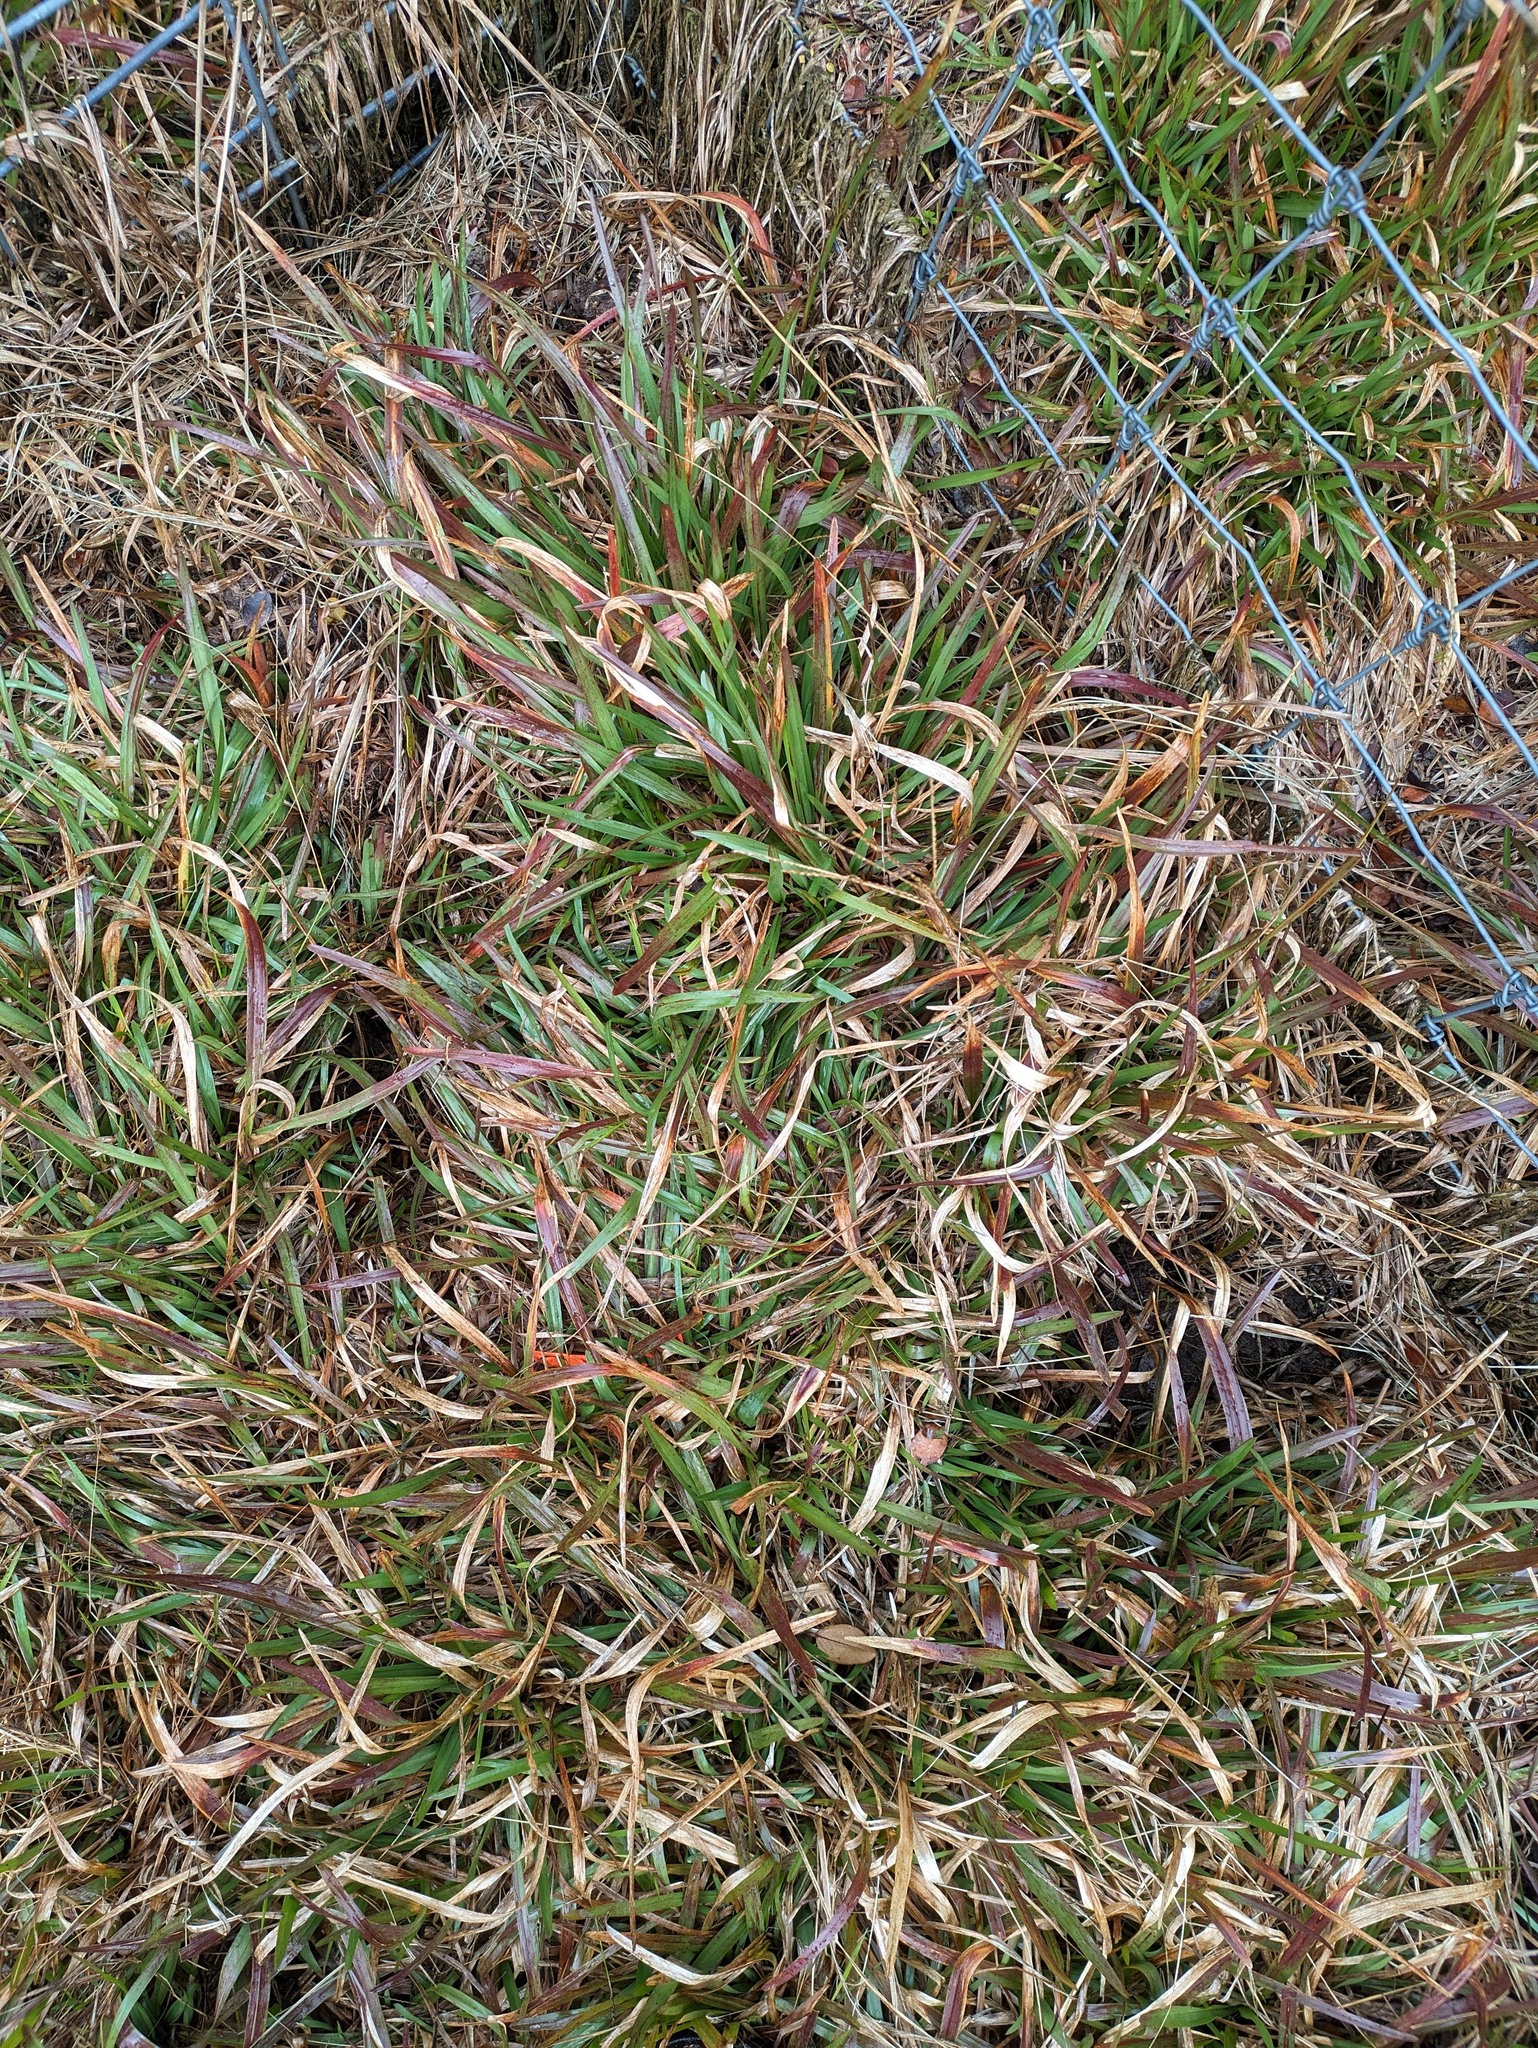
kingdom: Plantae
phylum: Tracheophyta
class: Liliopsida
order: Poales
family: Poaceae
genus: Axonopus
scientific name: Axonopus fissifolius
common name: Common carpetgrass
